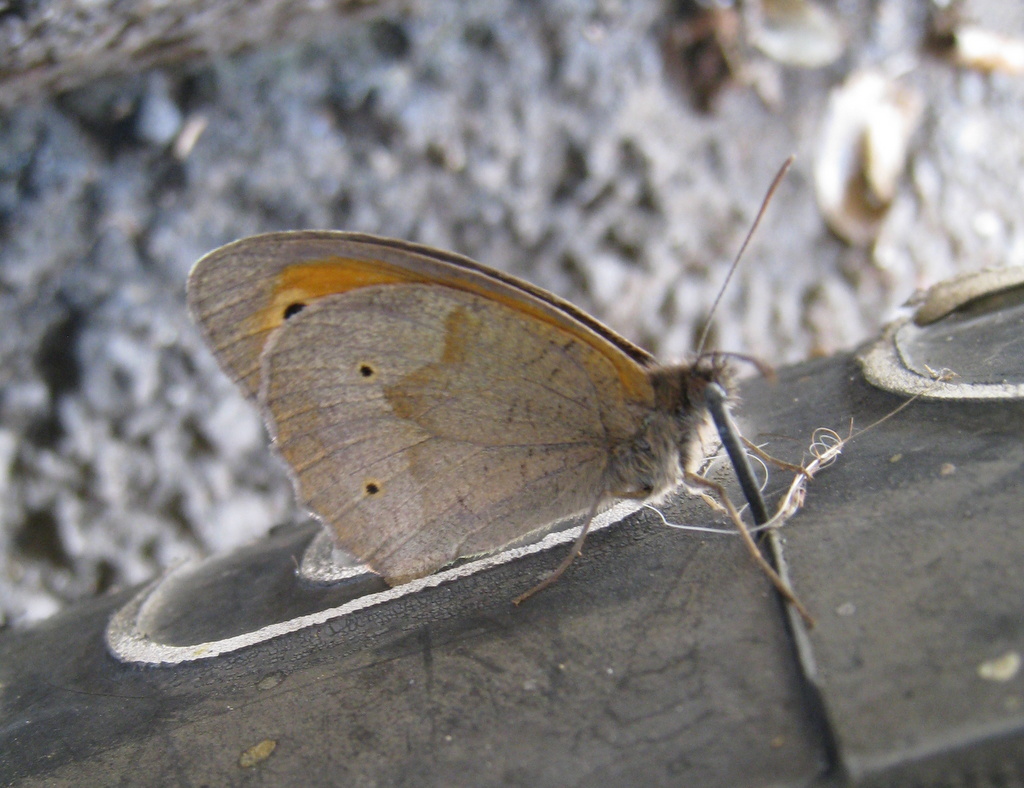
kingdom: Animalia
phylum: Arthropoda
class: Insecta
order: Lepidoptera
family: Nymphalidae
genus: Maniola
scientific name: Maniola jurtina
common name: Meadow brown
